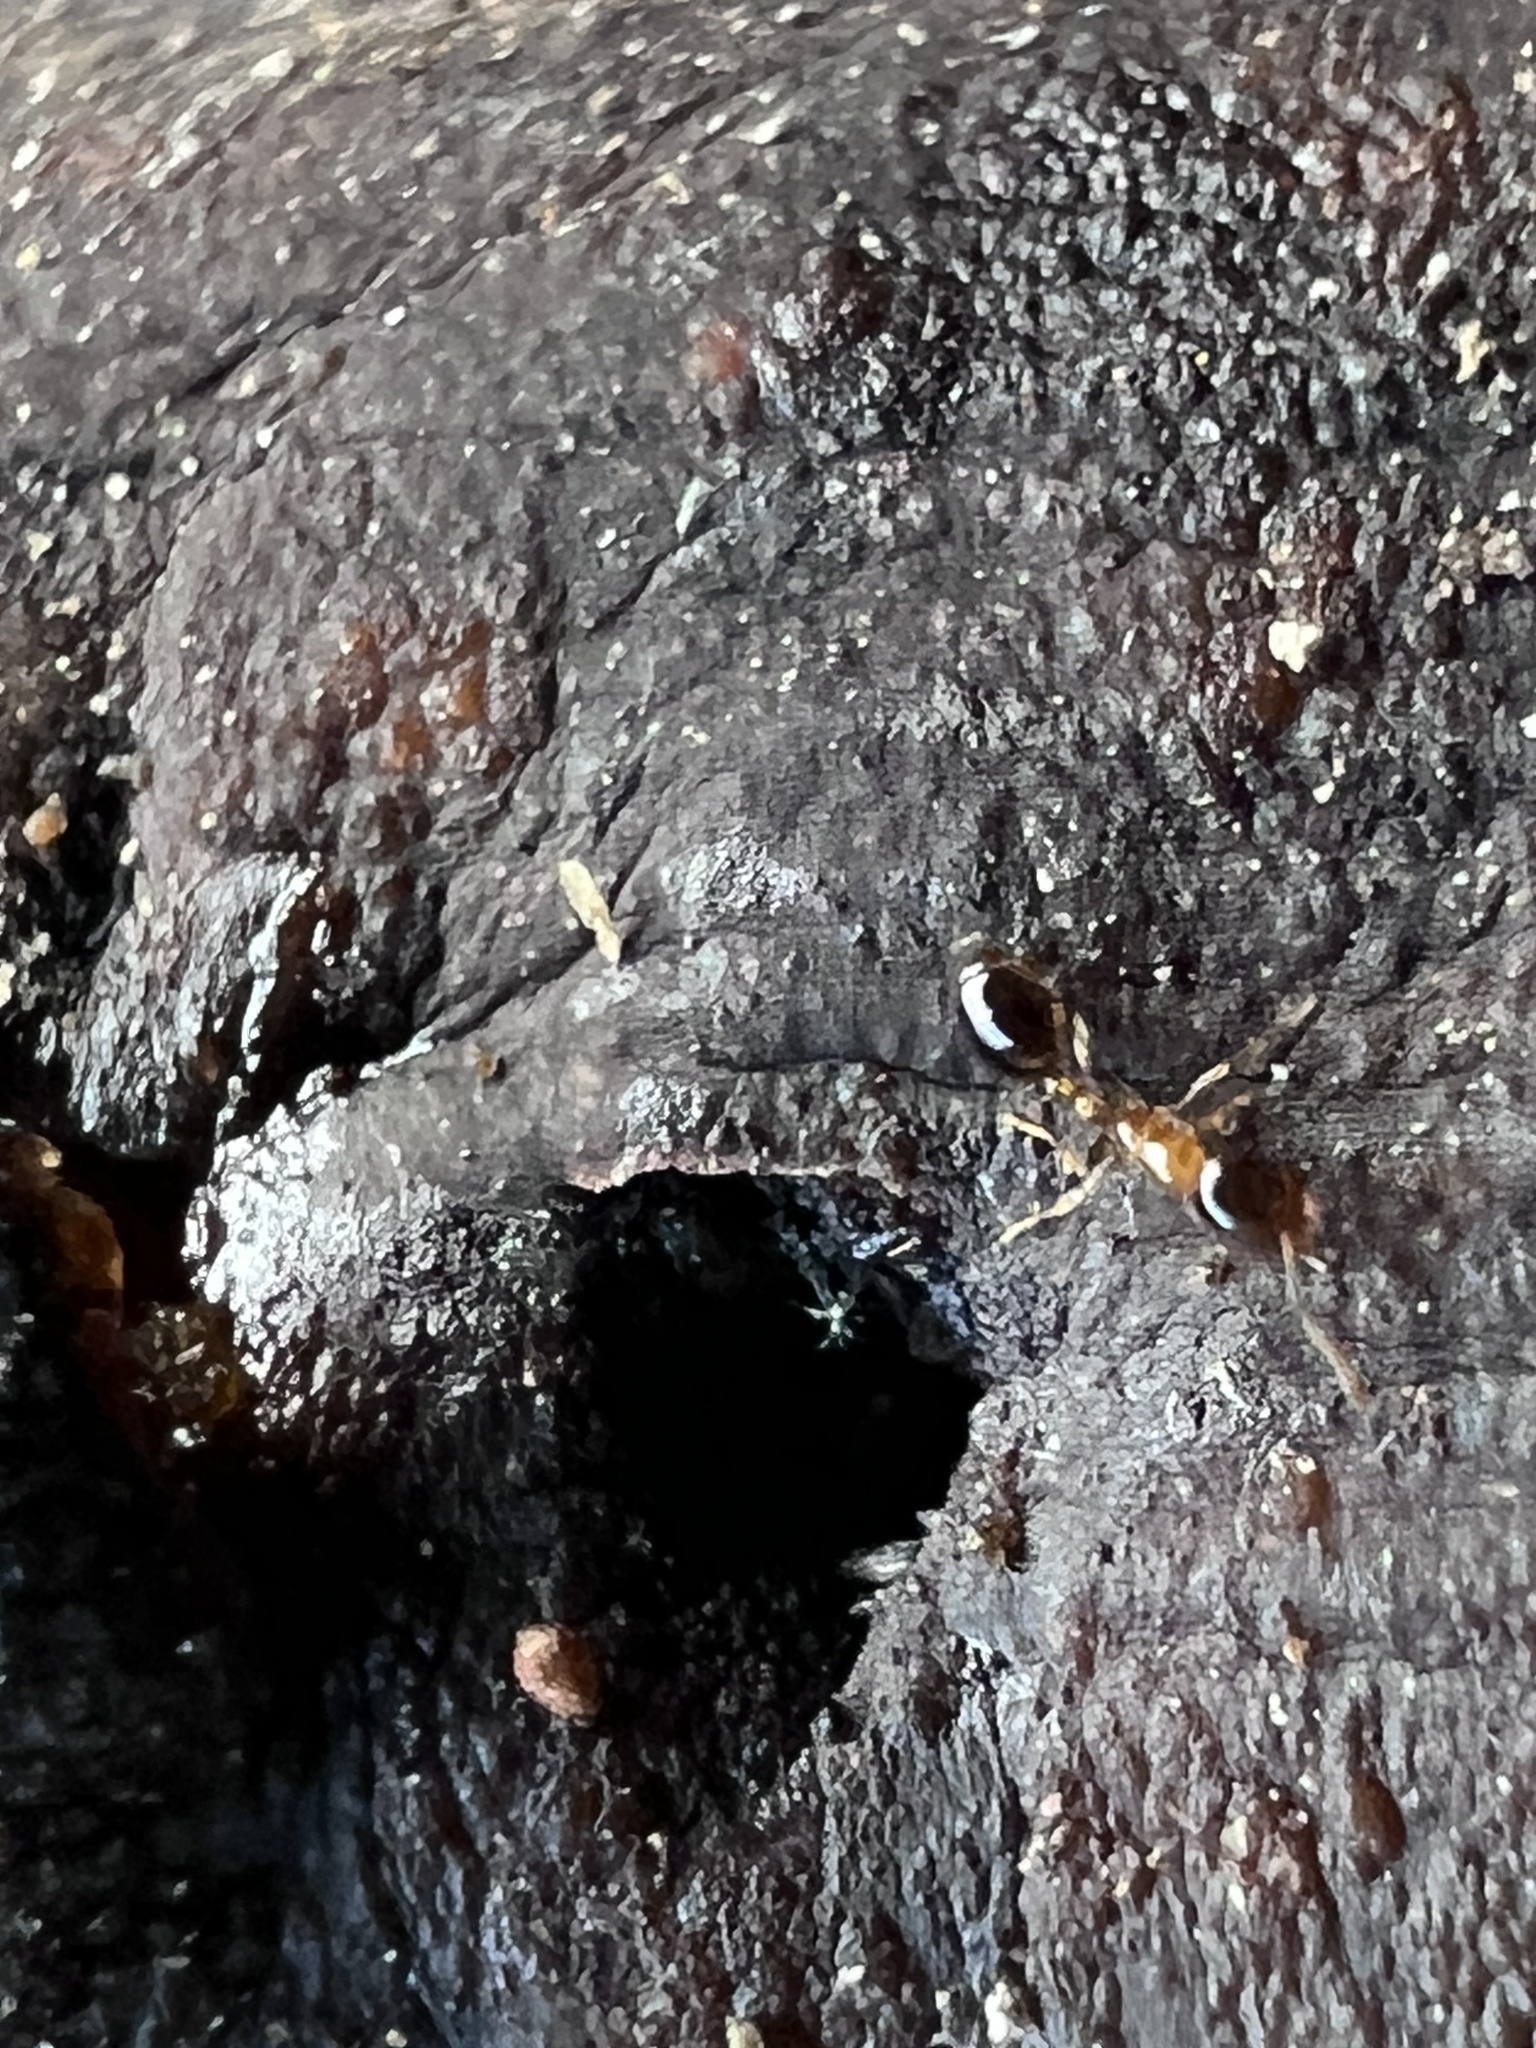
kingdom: Animalia
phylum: Arthropoda
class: Insecta
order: Hymenoptera
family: Formicidae
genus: Monomorium
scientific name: Monomorium floricola
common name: Bicolored trailing ant
